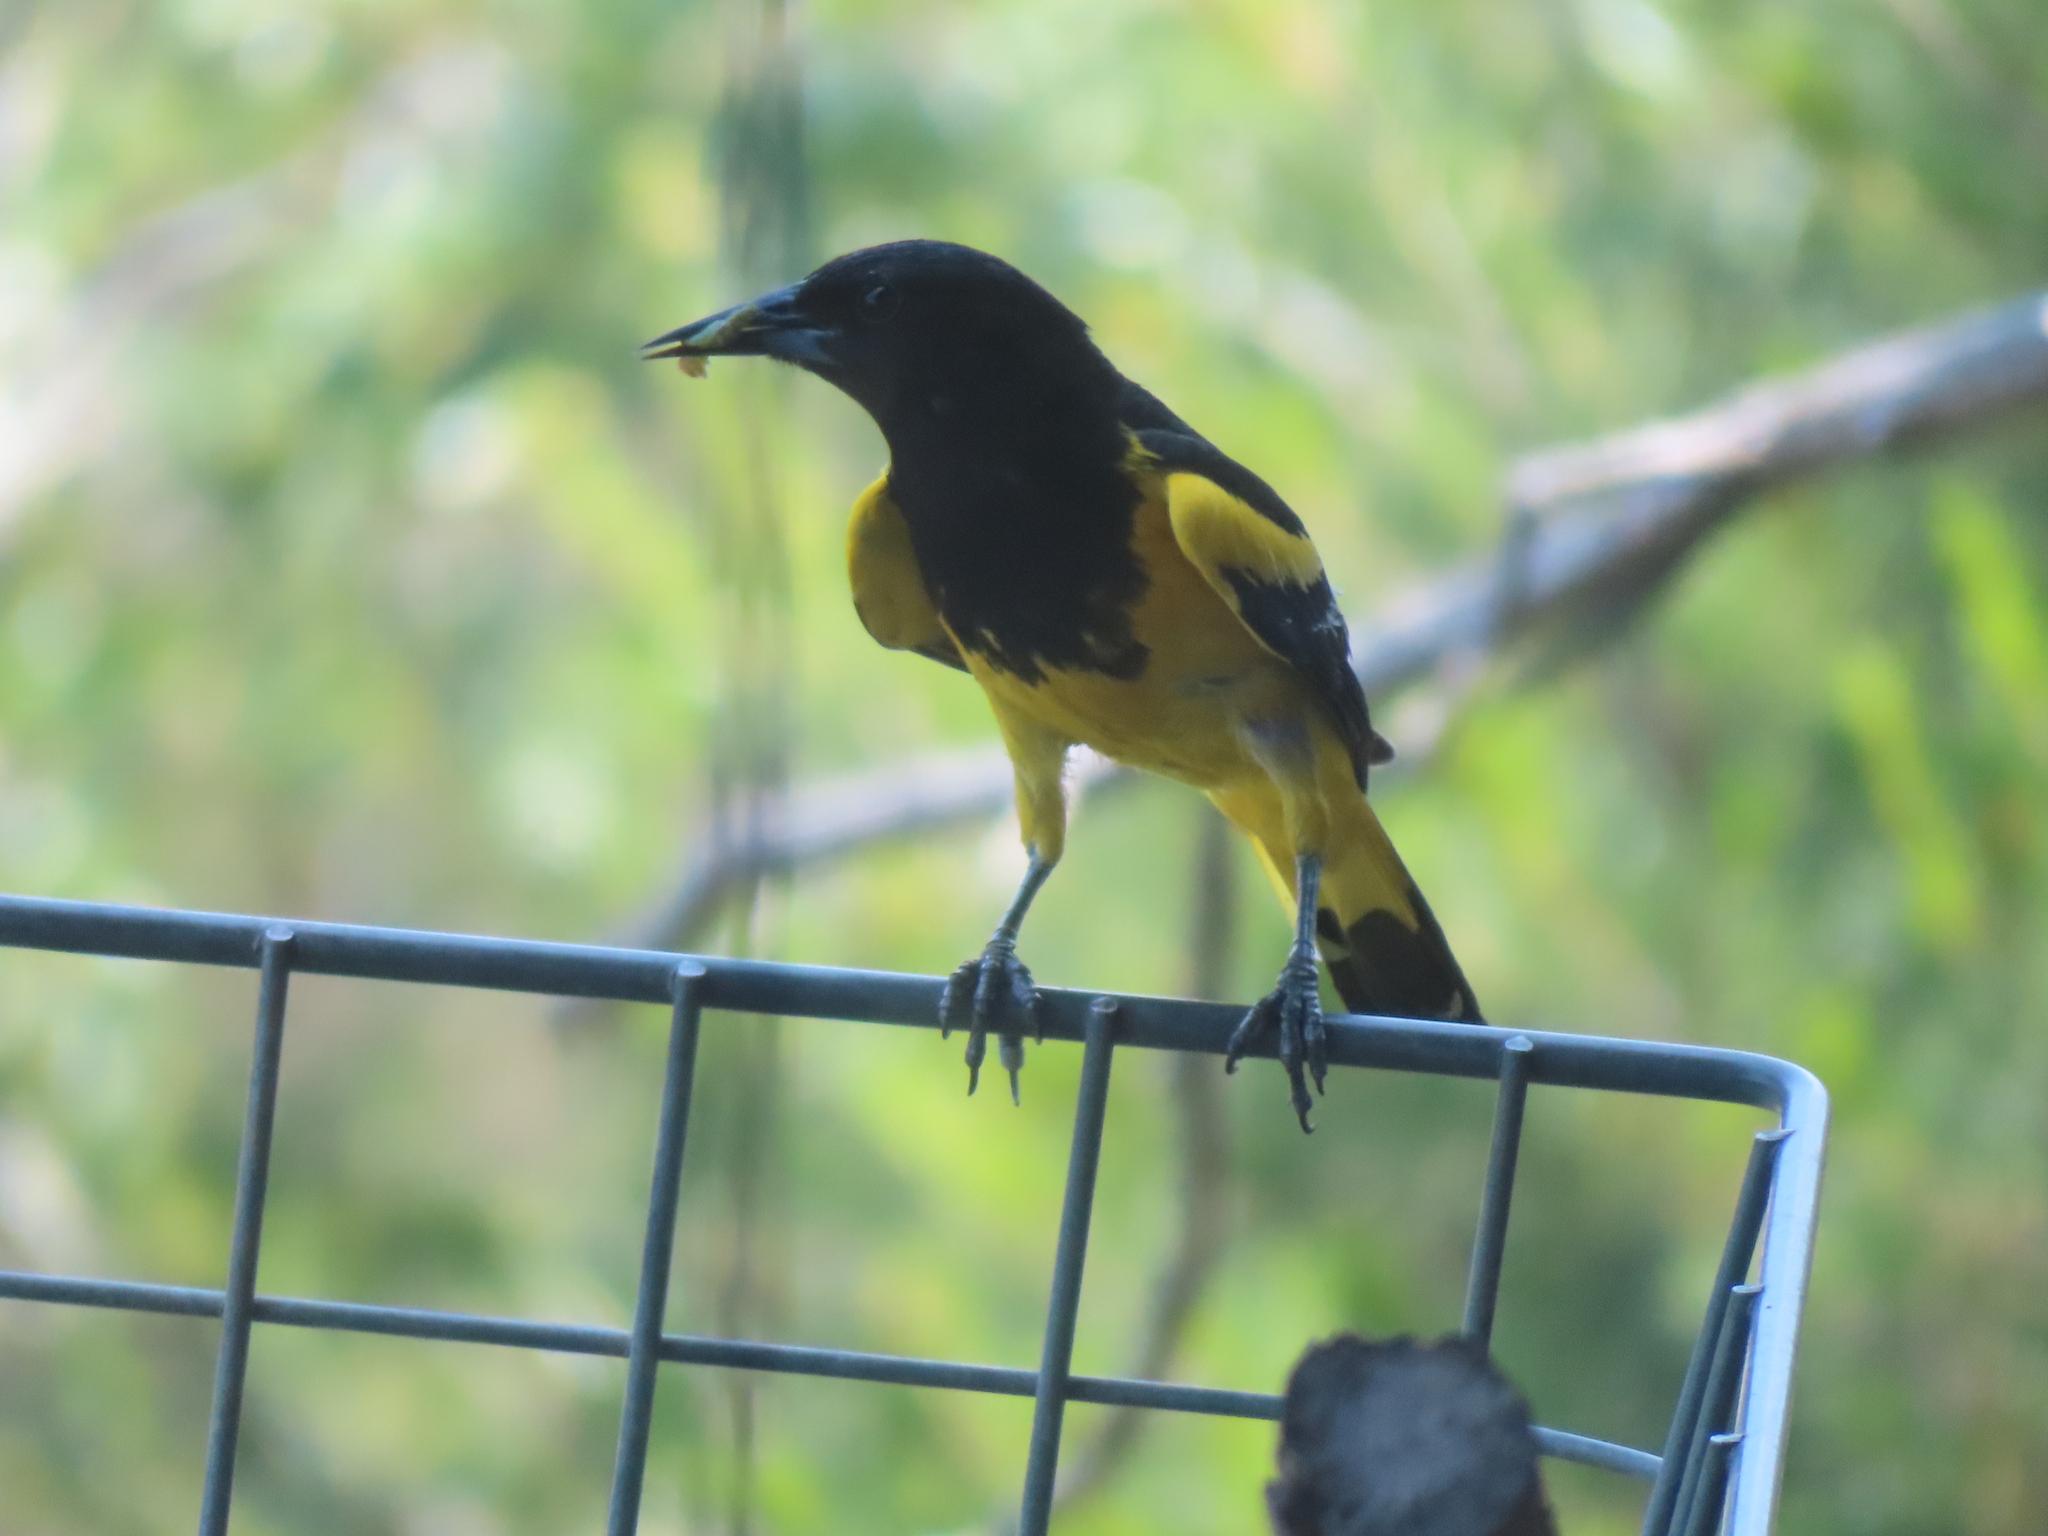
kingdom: Animalia
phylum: Chordata
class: Aves
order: Passeriformes
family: Icteridae
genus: Icterus
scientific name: Icterus parisorum
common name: Scott's oriole
